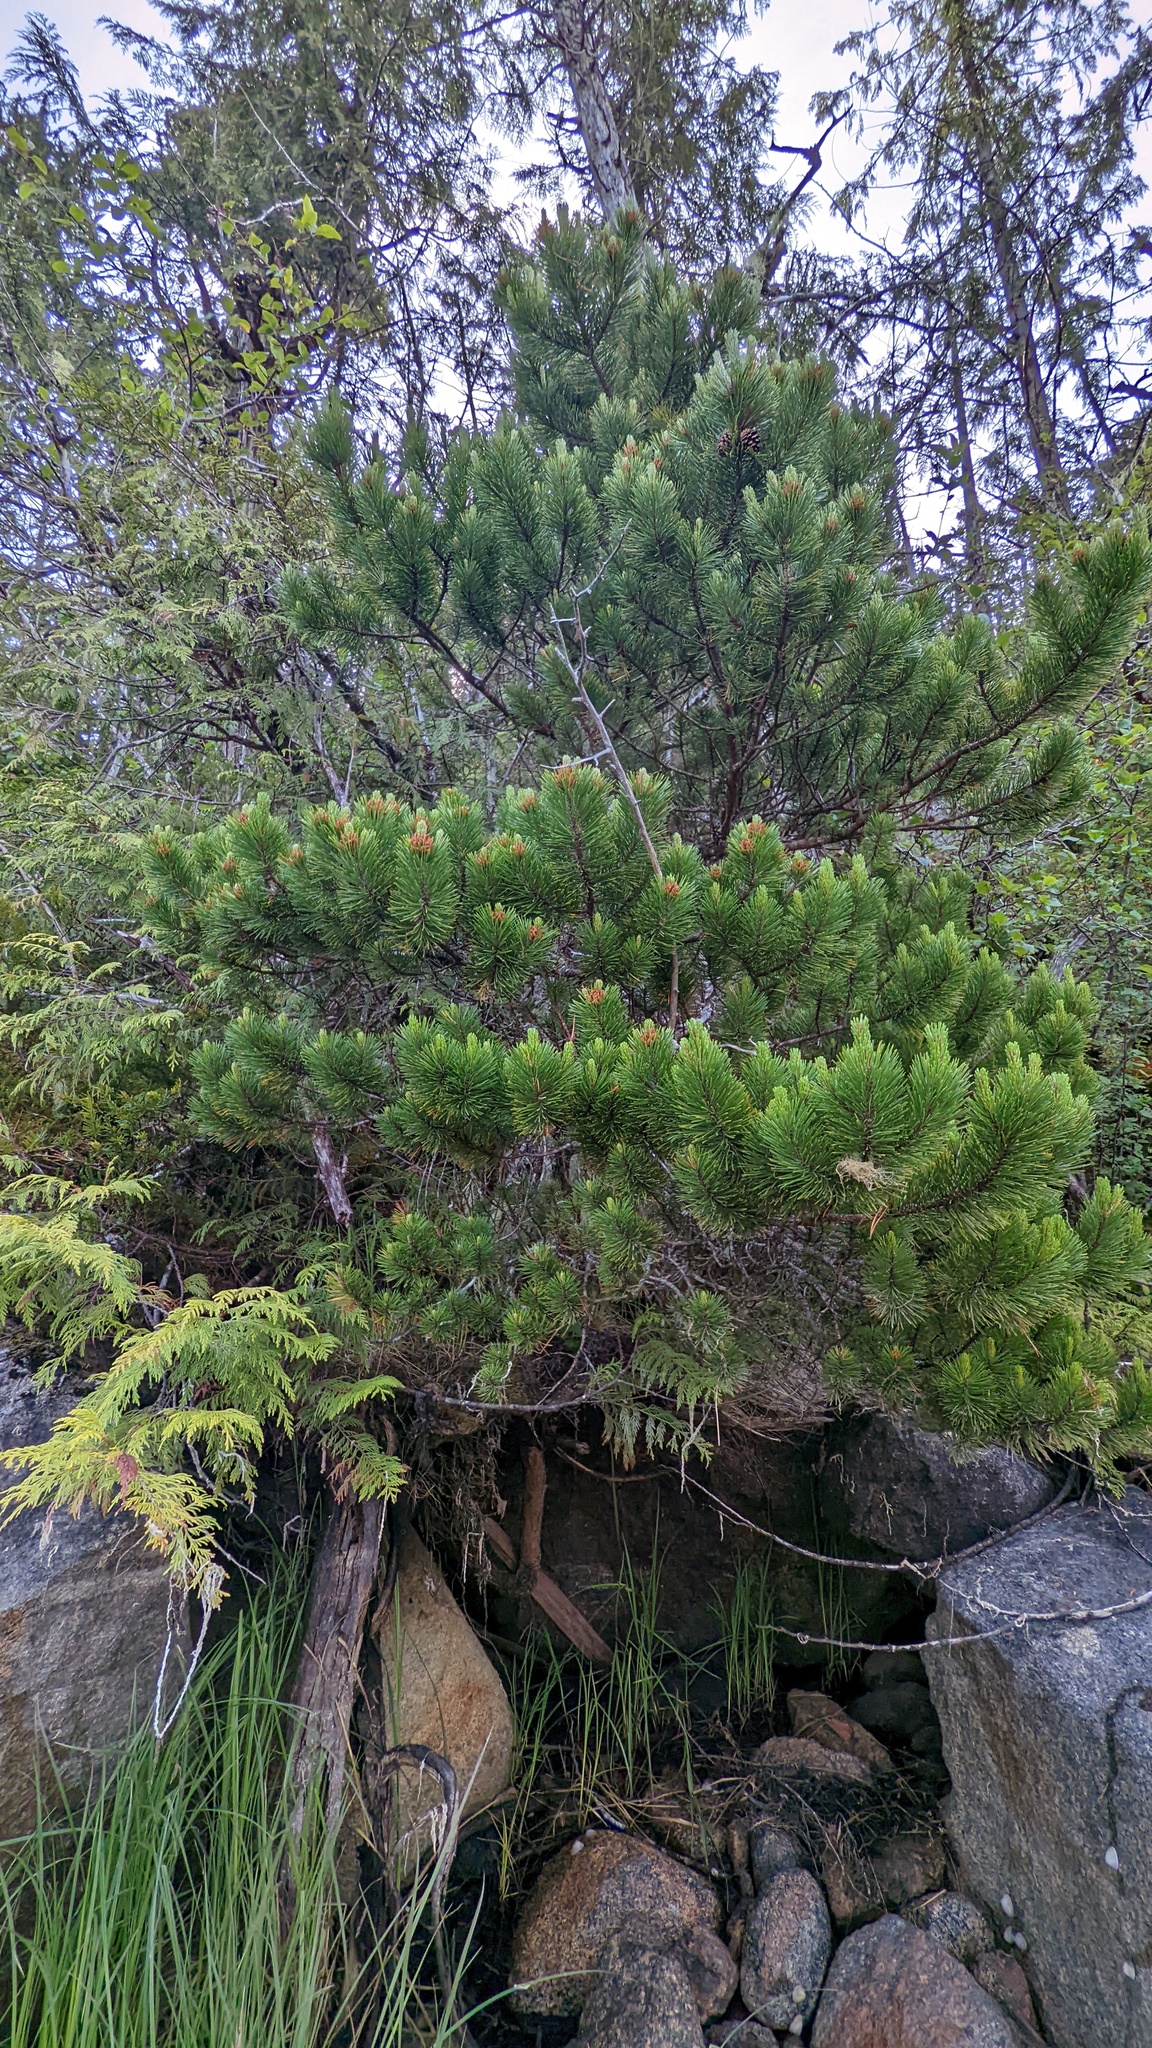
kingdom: Plantae
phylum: Tracheophyta
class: Pinopsida
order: Pinales
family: Pinaceae
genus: Pinus
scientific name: Pinus contorta
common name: Lodgepole pine
